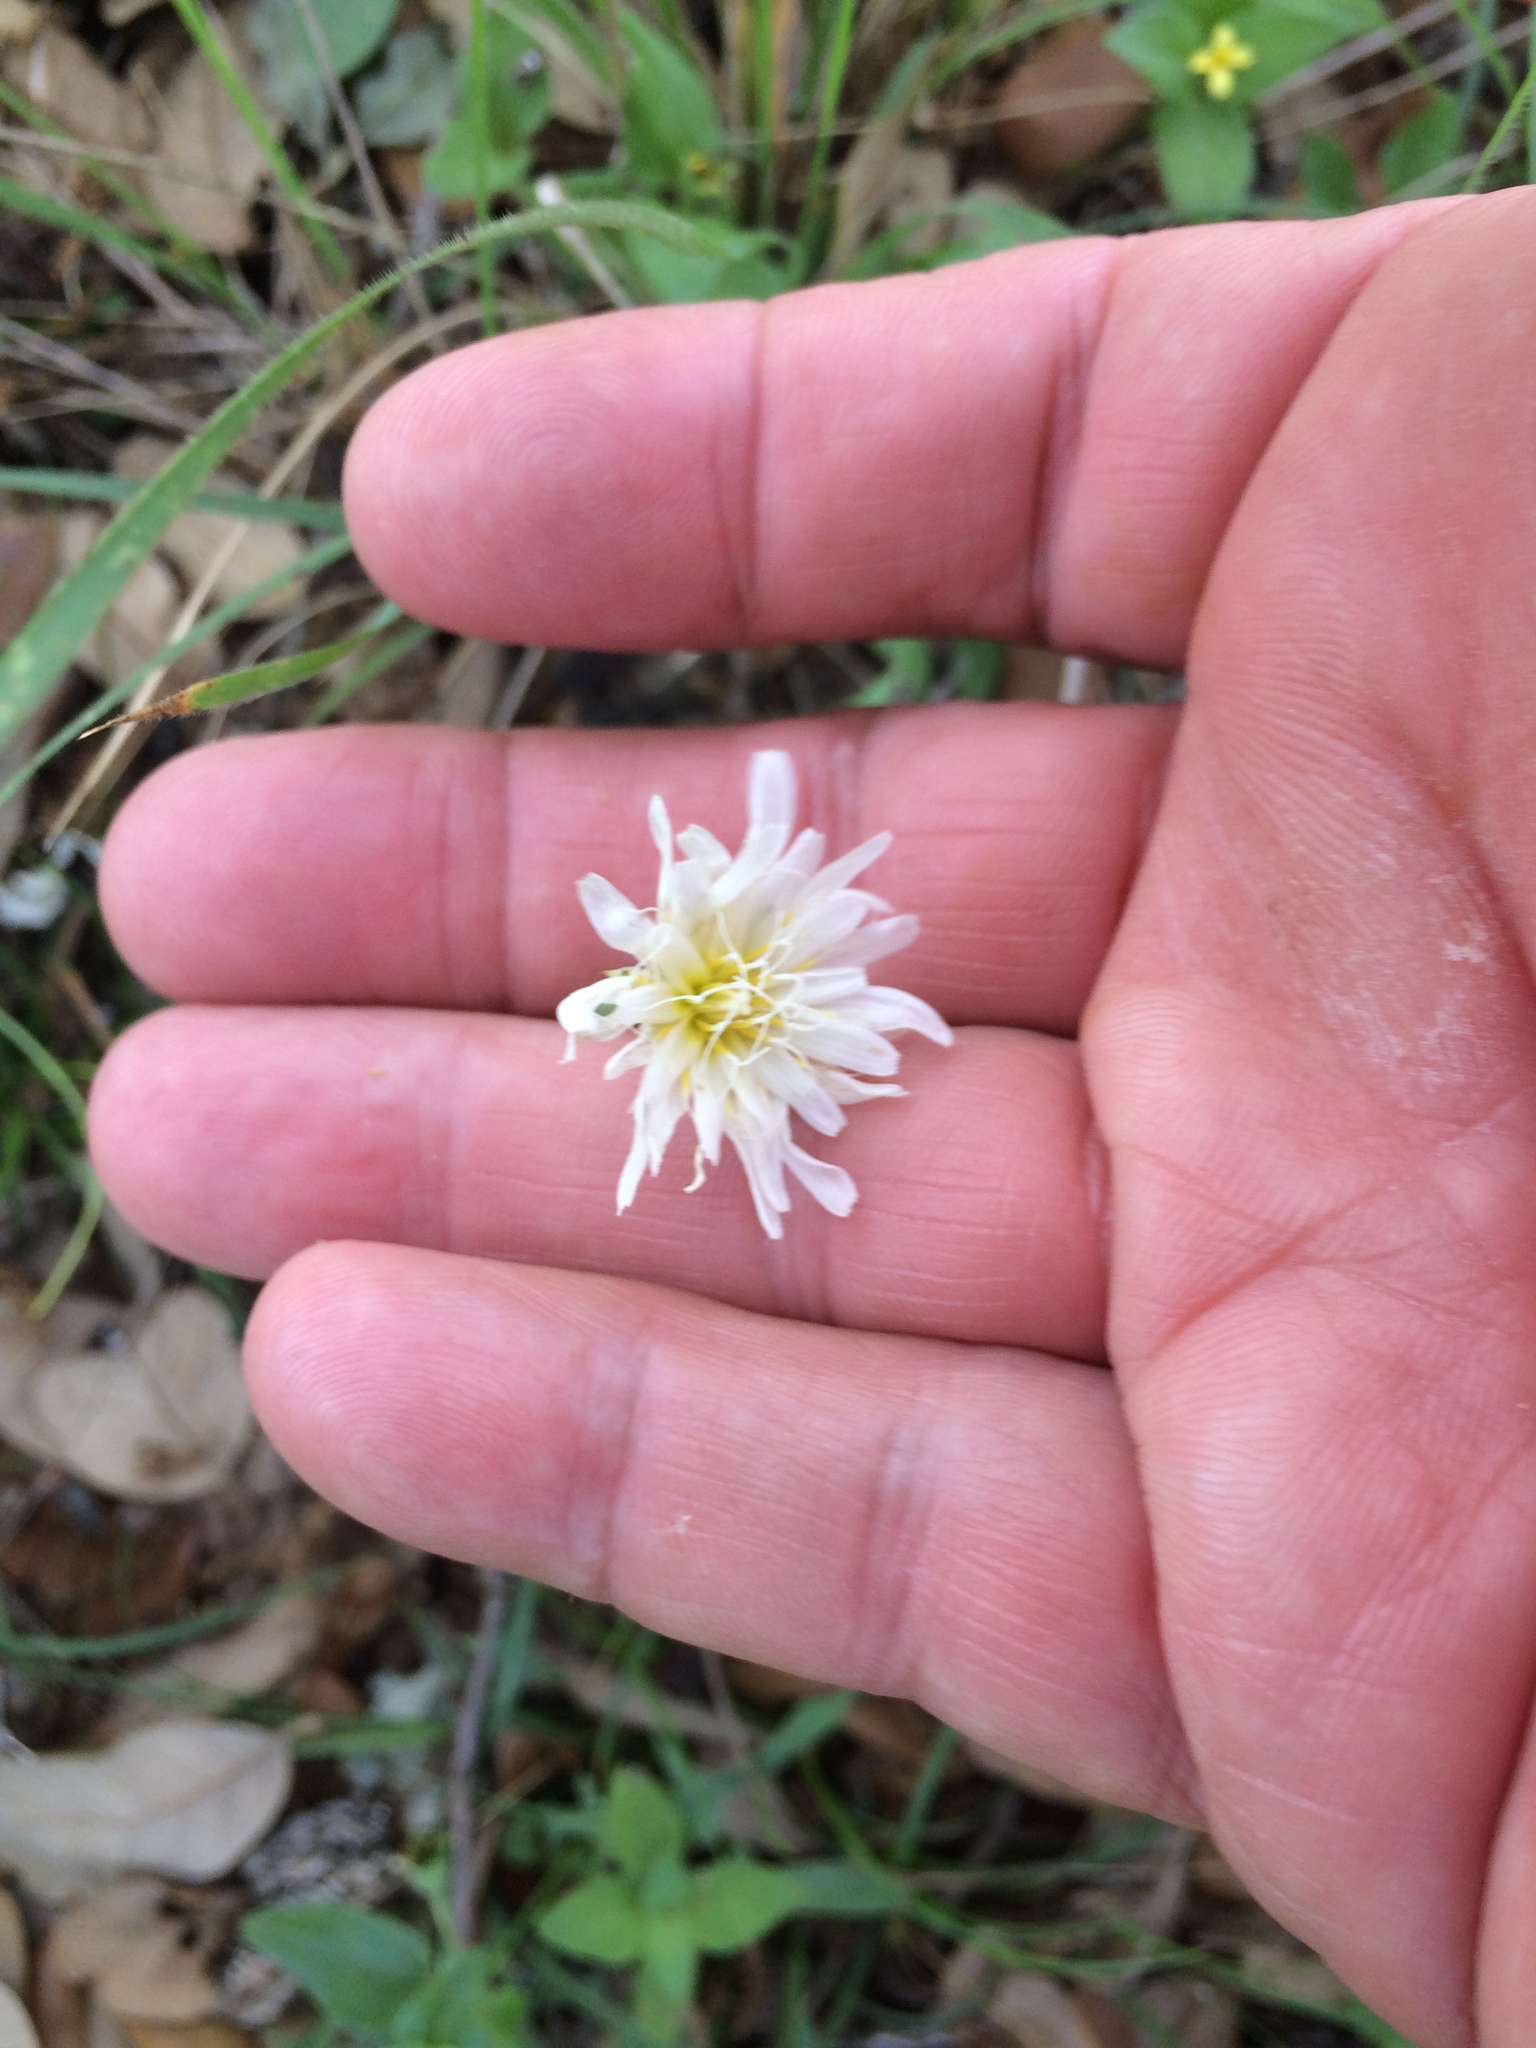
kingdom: Plantae
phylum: Tracheophyta
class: Magnoliopsida
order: Asterales
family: Asteraceae
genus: Pinaropappus
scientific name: Pinaropappus roseus
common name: Rock-lettuce
